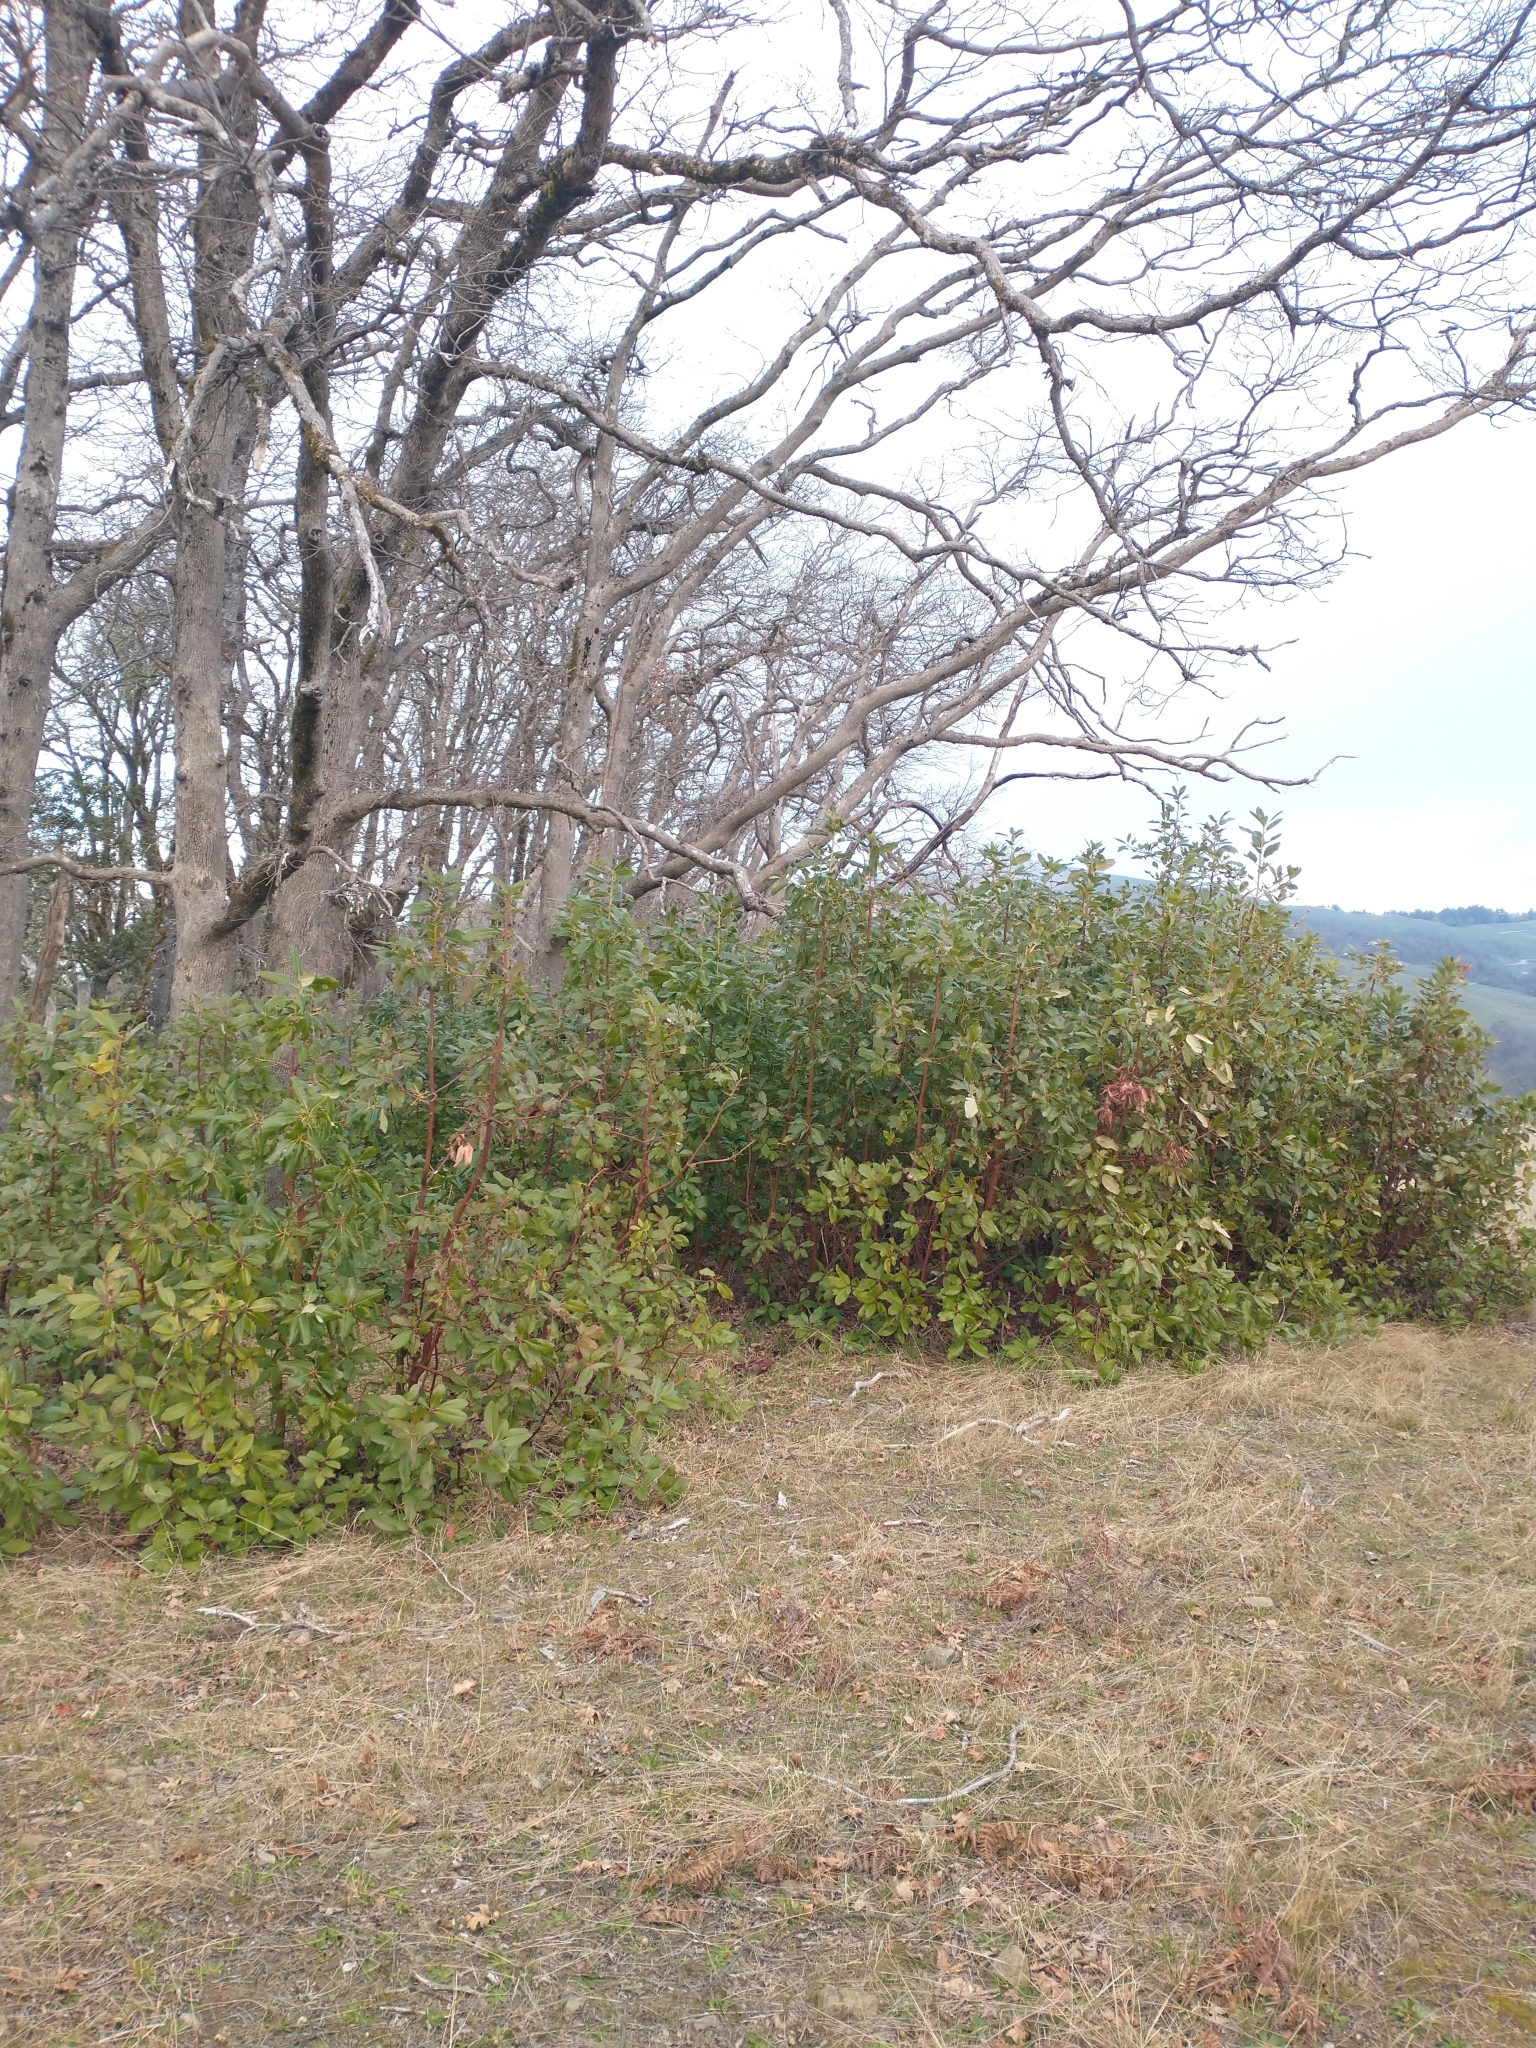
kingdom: Plantae
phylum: Tracheophyta
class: Magnoliopsida
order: Ericales
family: Ericaceae
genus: Arbutus
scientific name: Arbutus menziesii
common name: Pacific madrone
